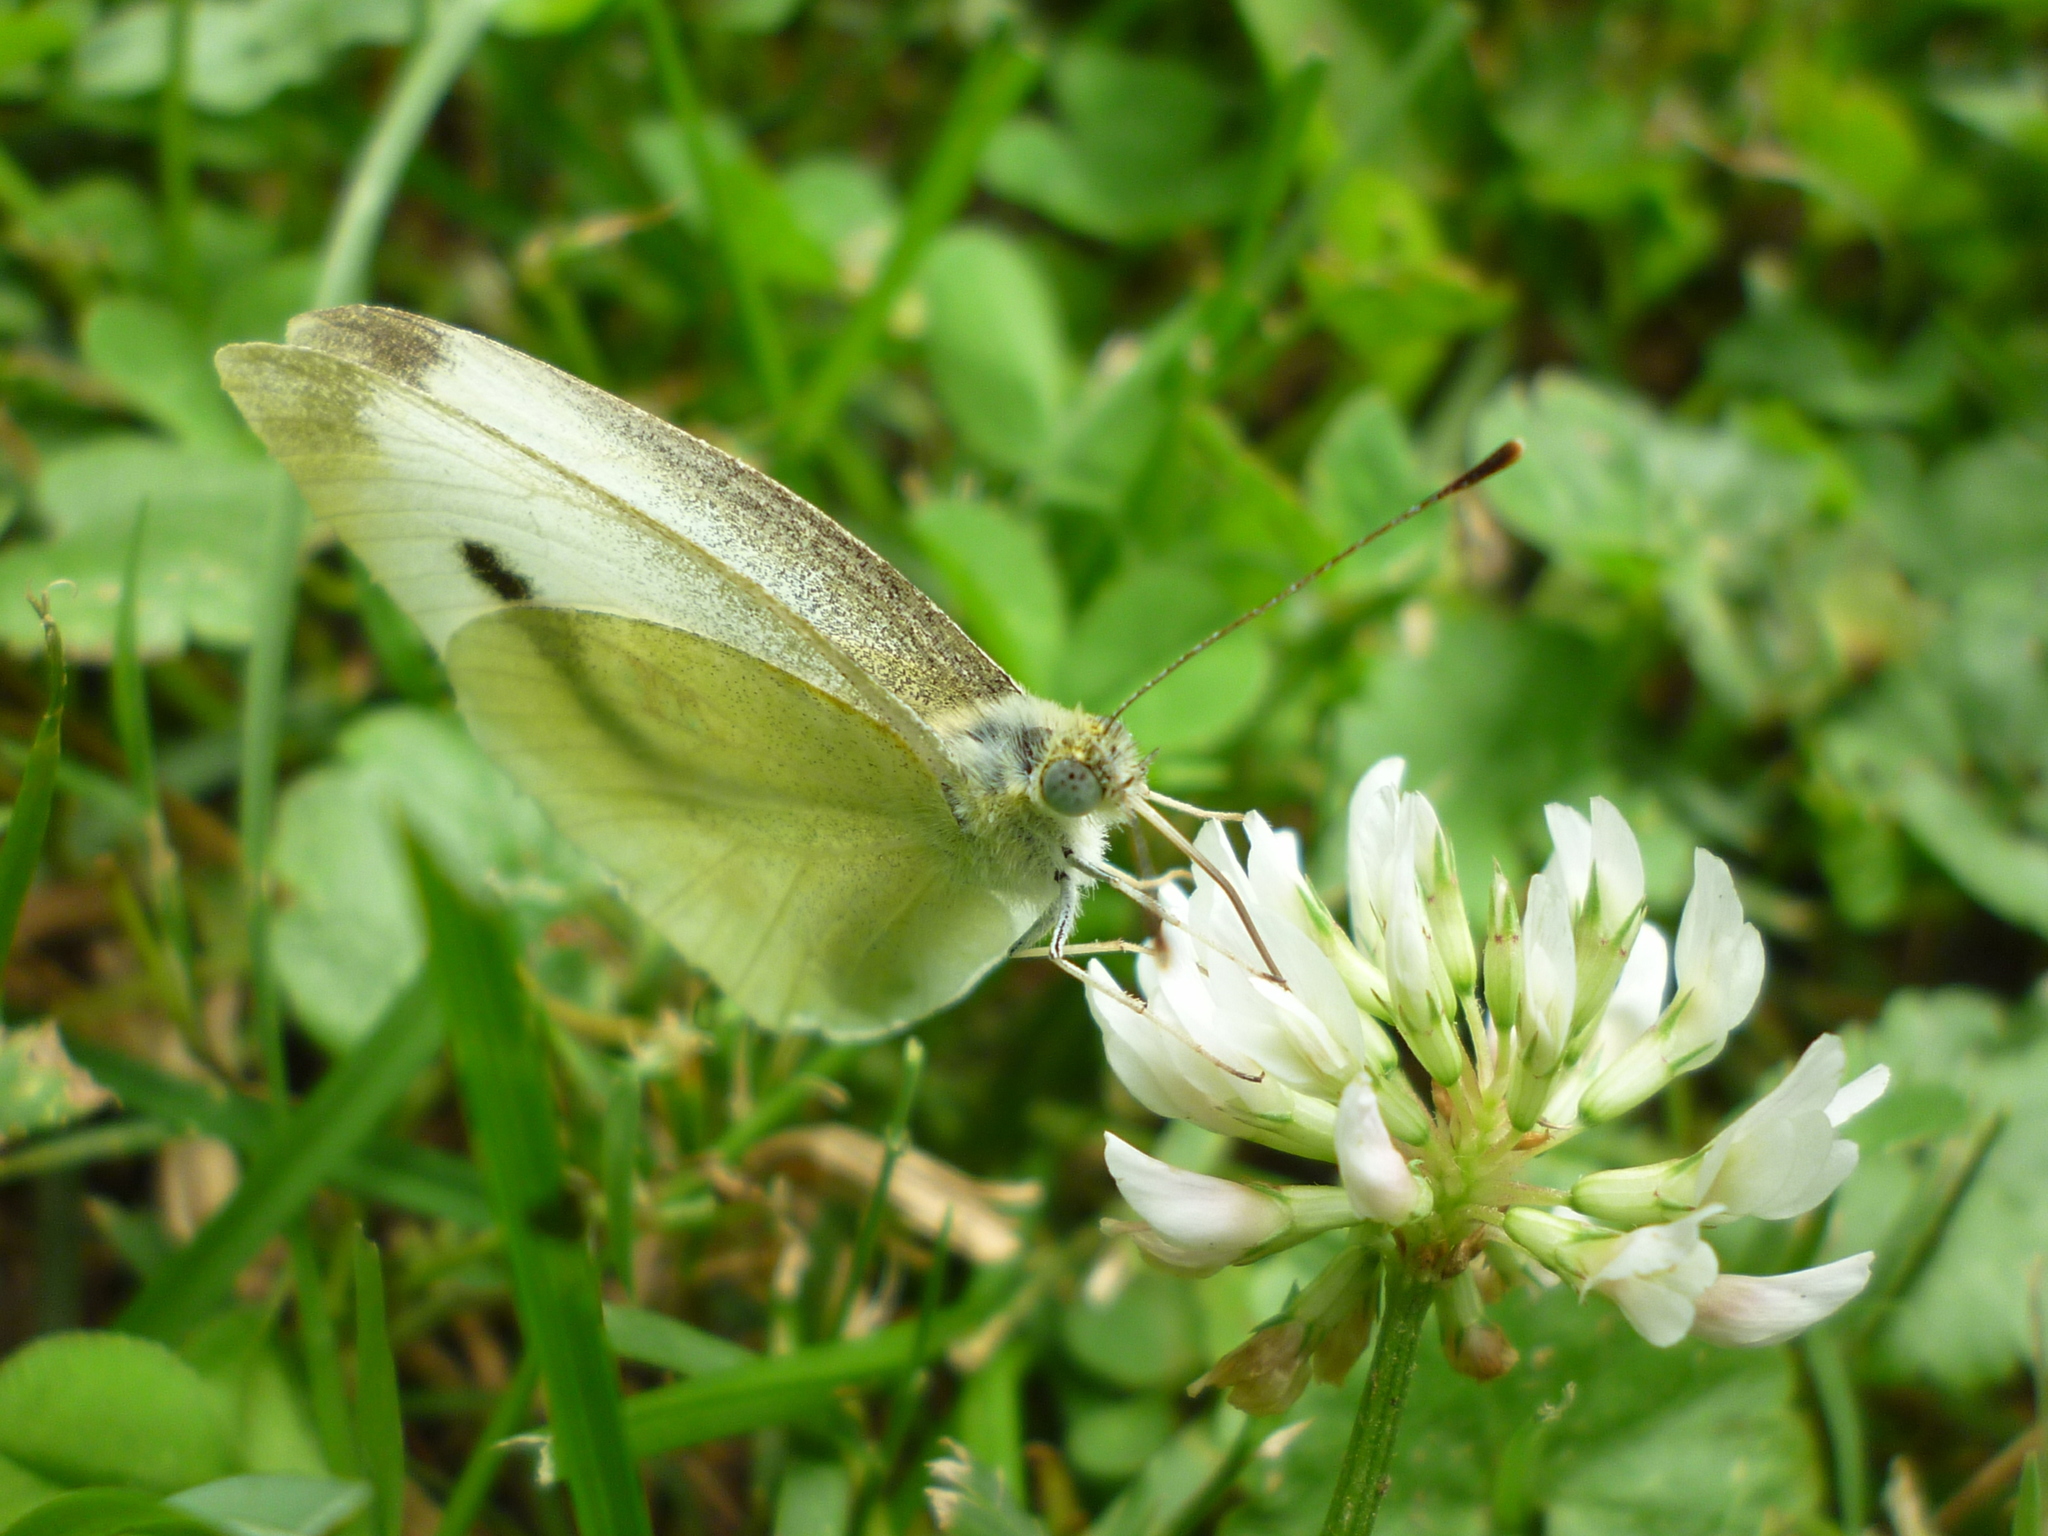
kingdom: Animalia
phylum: Arthropoda
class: Insecta
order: Lepidoptera
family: Pieridae
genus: Pieris
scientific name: Pieris rapae
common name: Small white
